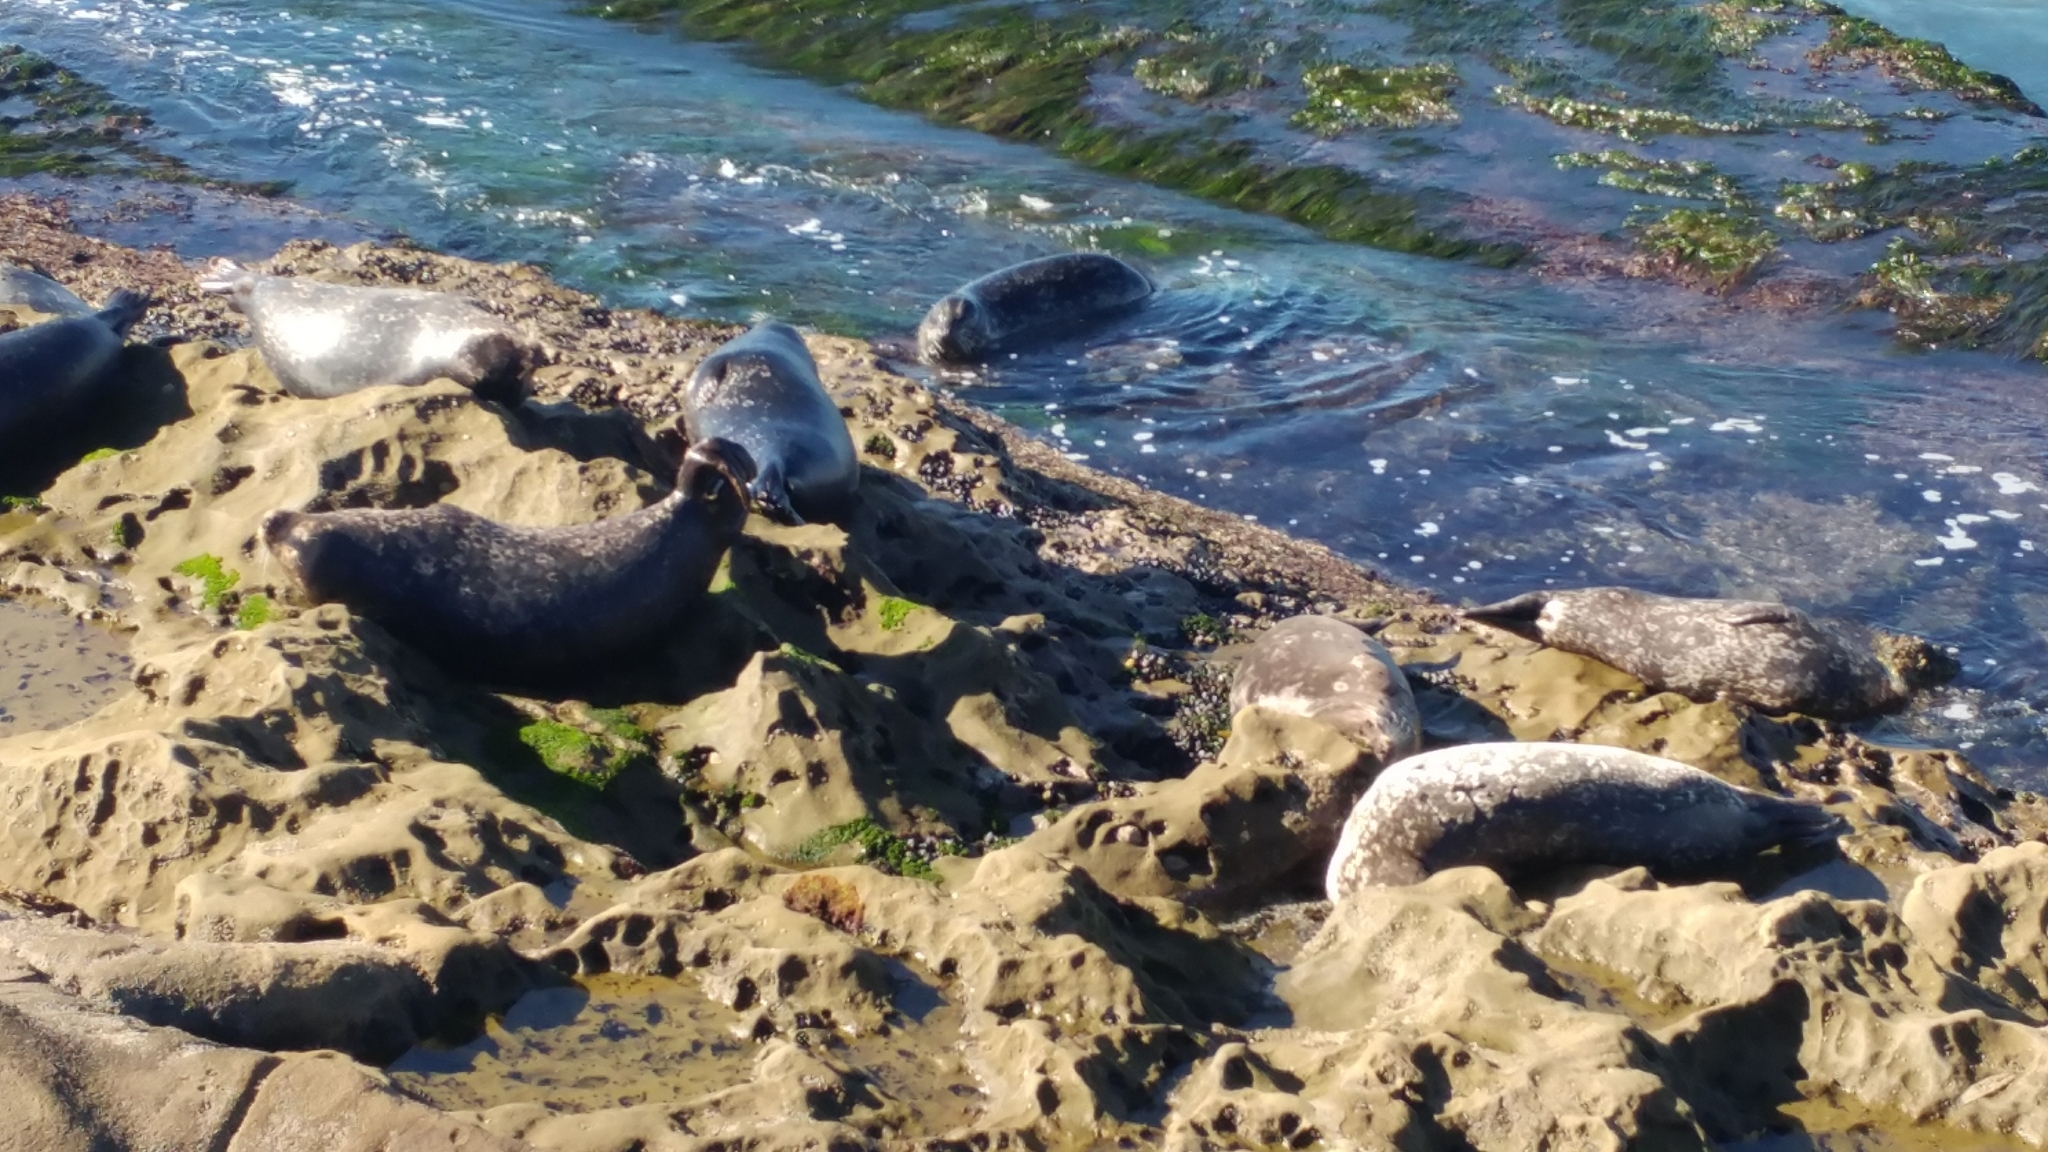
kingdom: Animalia
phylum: Chordata
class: Mammalia
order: Carnivora
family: Phocidae
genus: Phoca
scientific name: Phoca vitulina
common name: Harbor seal
